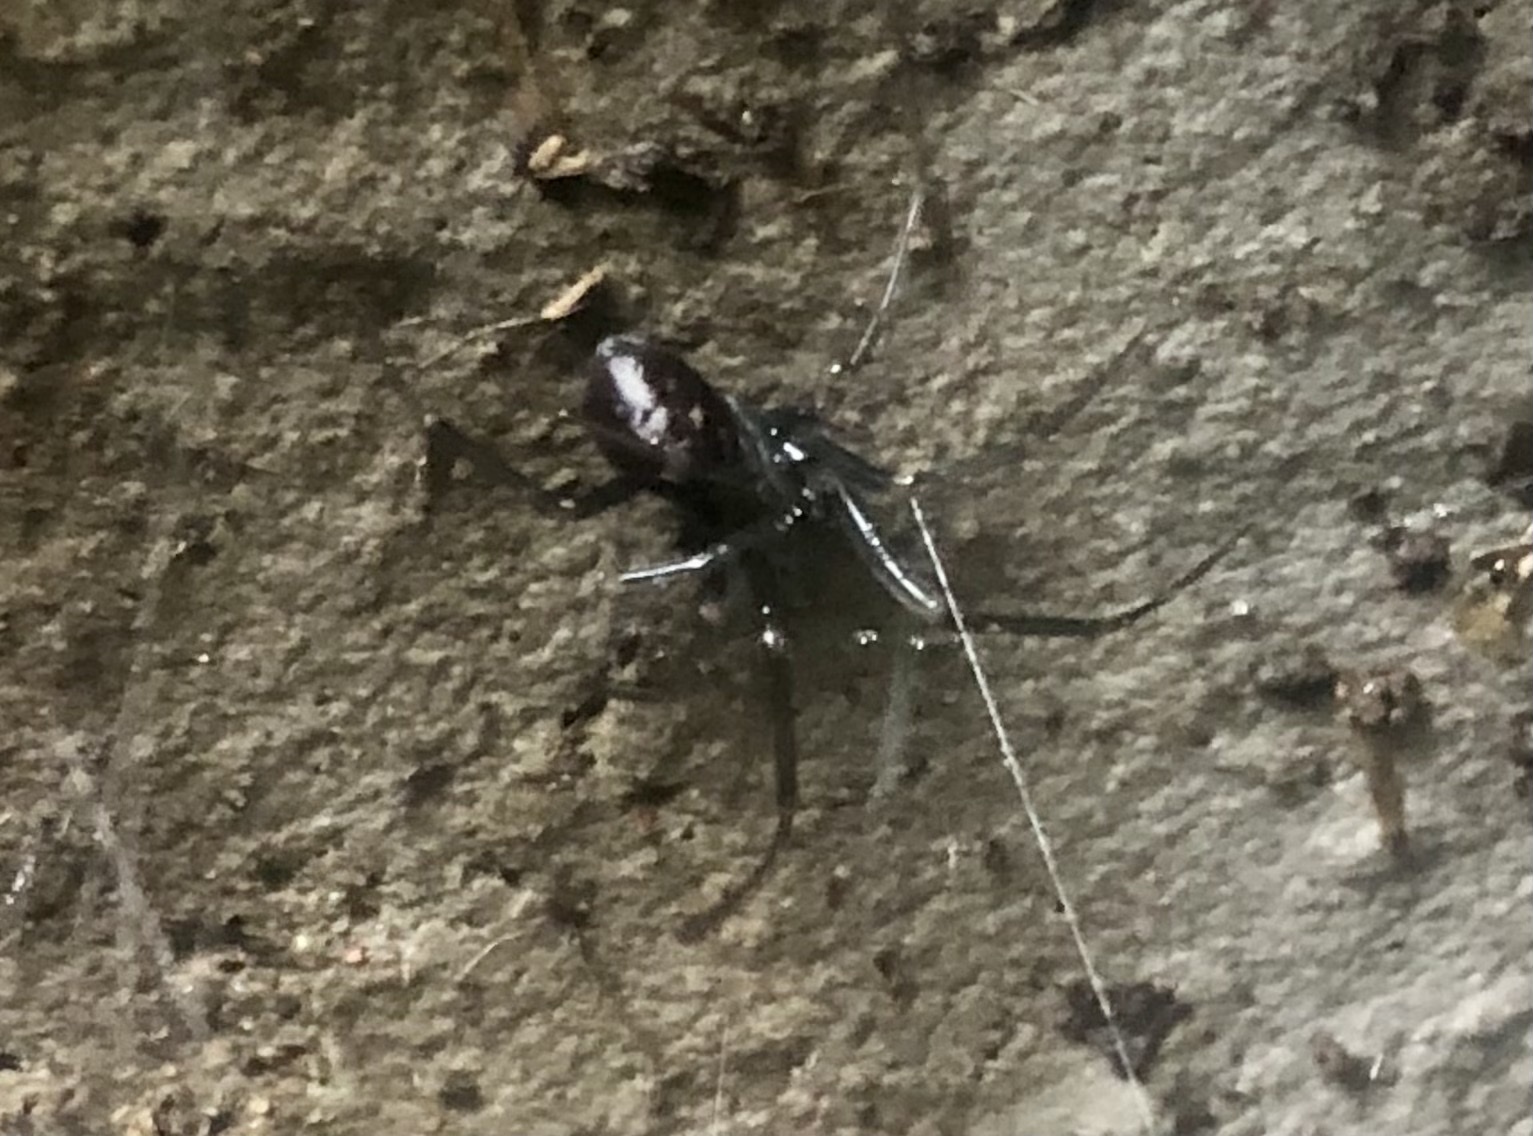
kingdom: Animalia
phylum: Arthropoda
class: Arachnida
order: Araneae
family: Theridiidae
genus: Steatoda
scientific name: Steatoda grossa
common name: False black widow
